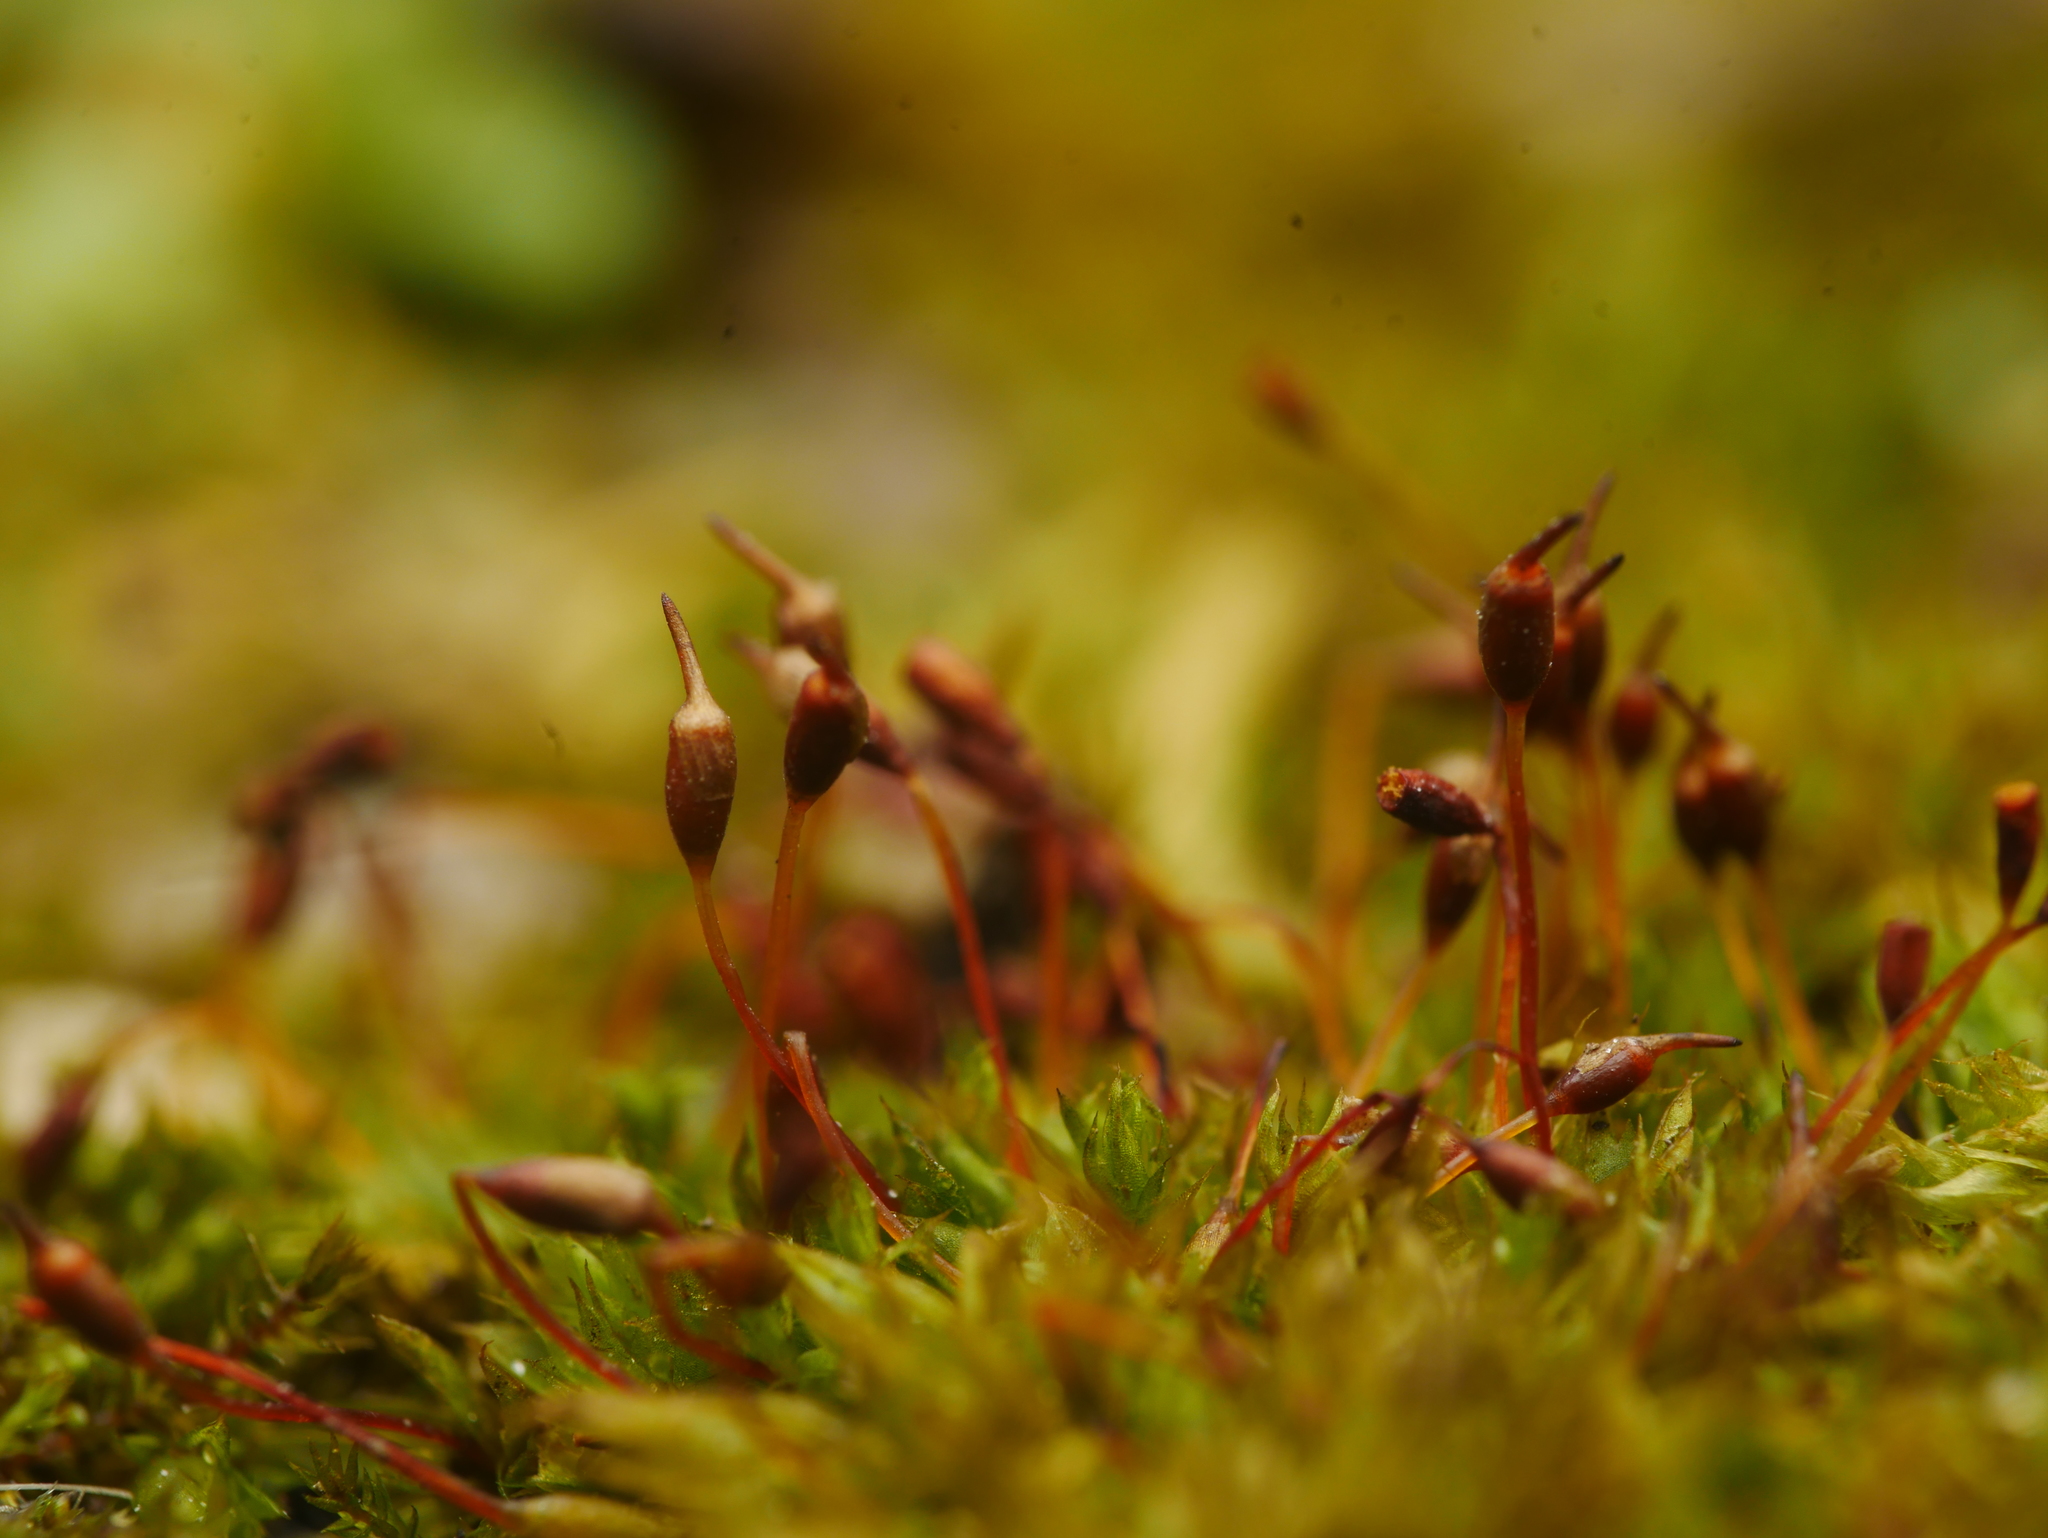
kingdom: Plantae
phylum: Bryophyta
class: Bryopsida
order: Pottiales
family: Pottiaceae
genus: Tortula
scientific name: Tortula truncata
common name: Truncated screw moss
